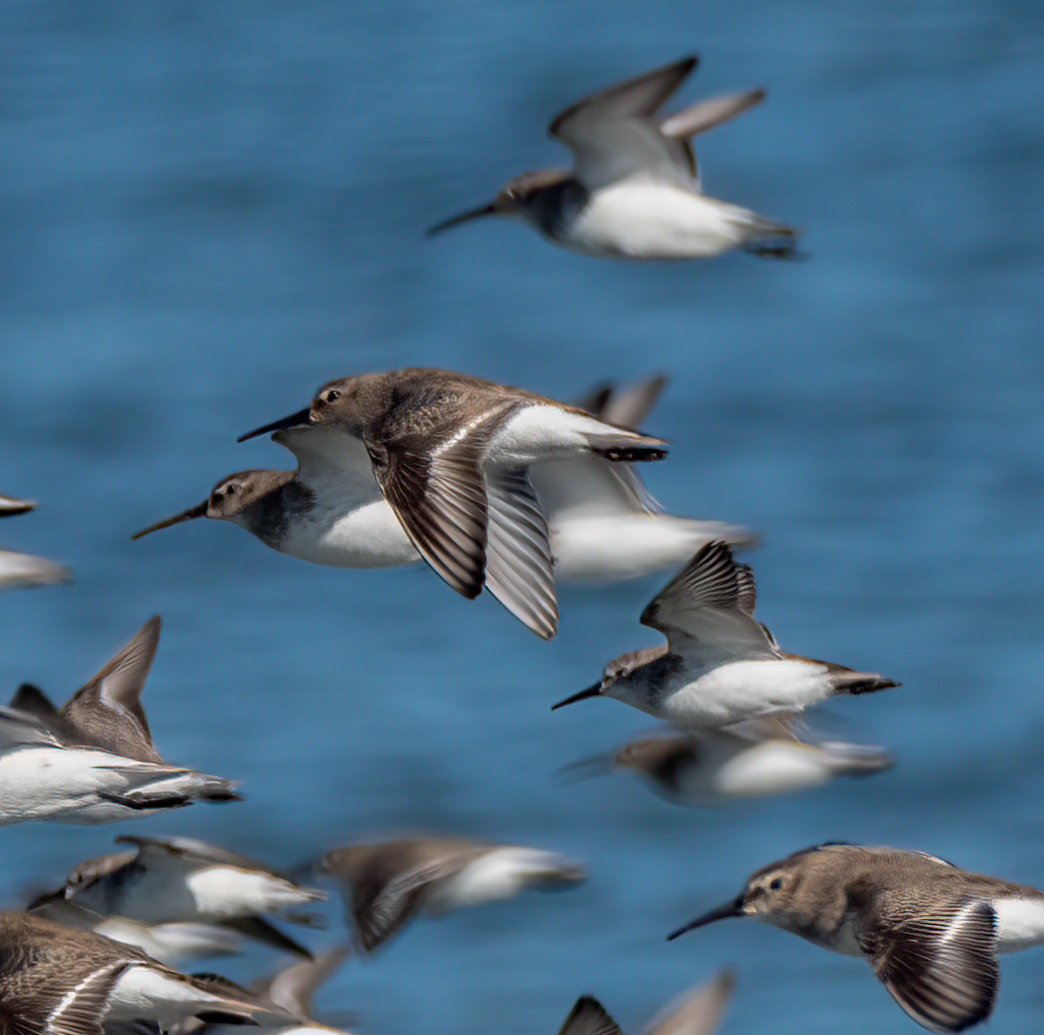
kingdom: Animalia
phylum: Chordata
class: Aves
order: Charadriiformes
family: Scolopacidae
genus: Calidris
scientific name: Calidris alpina
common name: Dunlin
